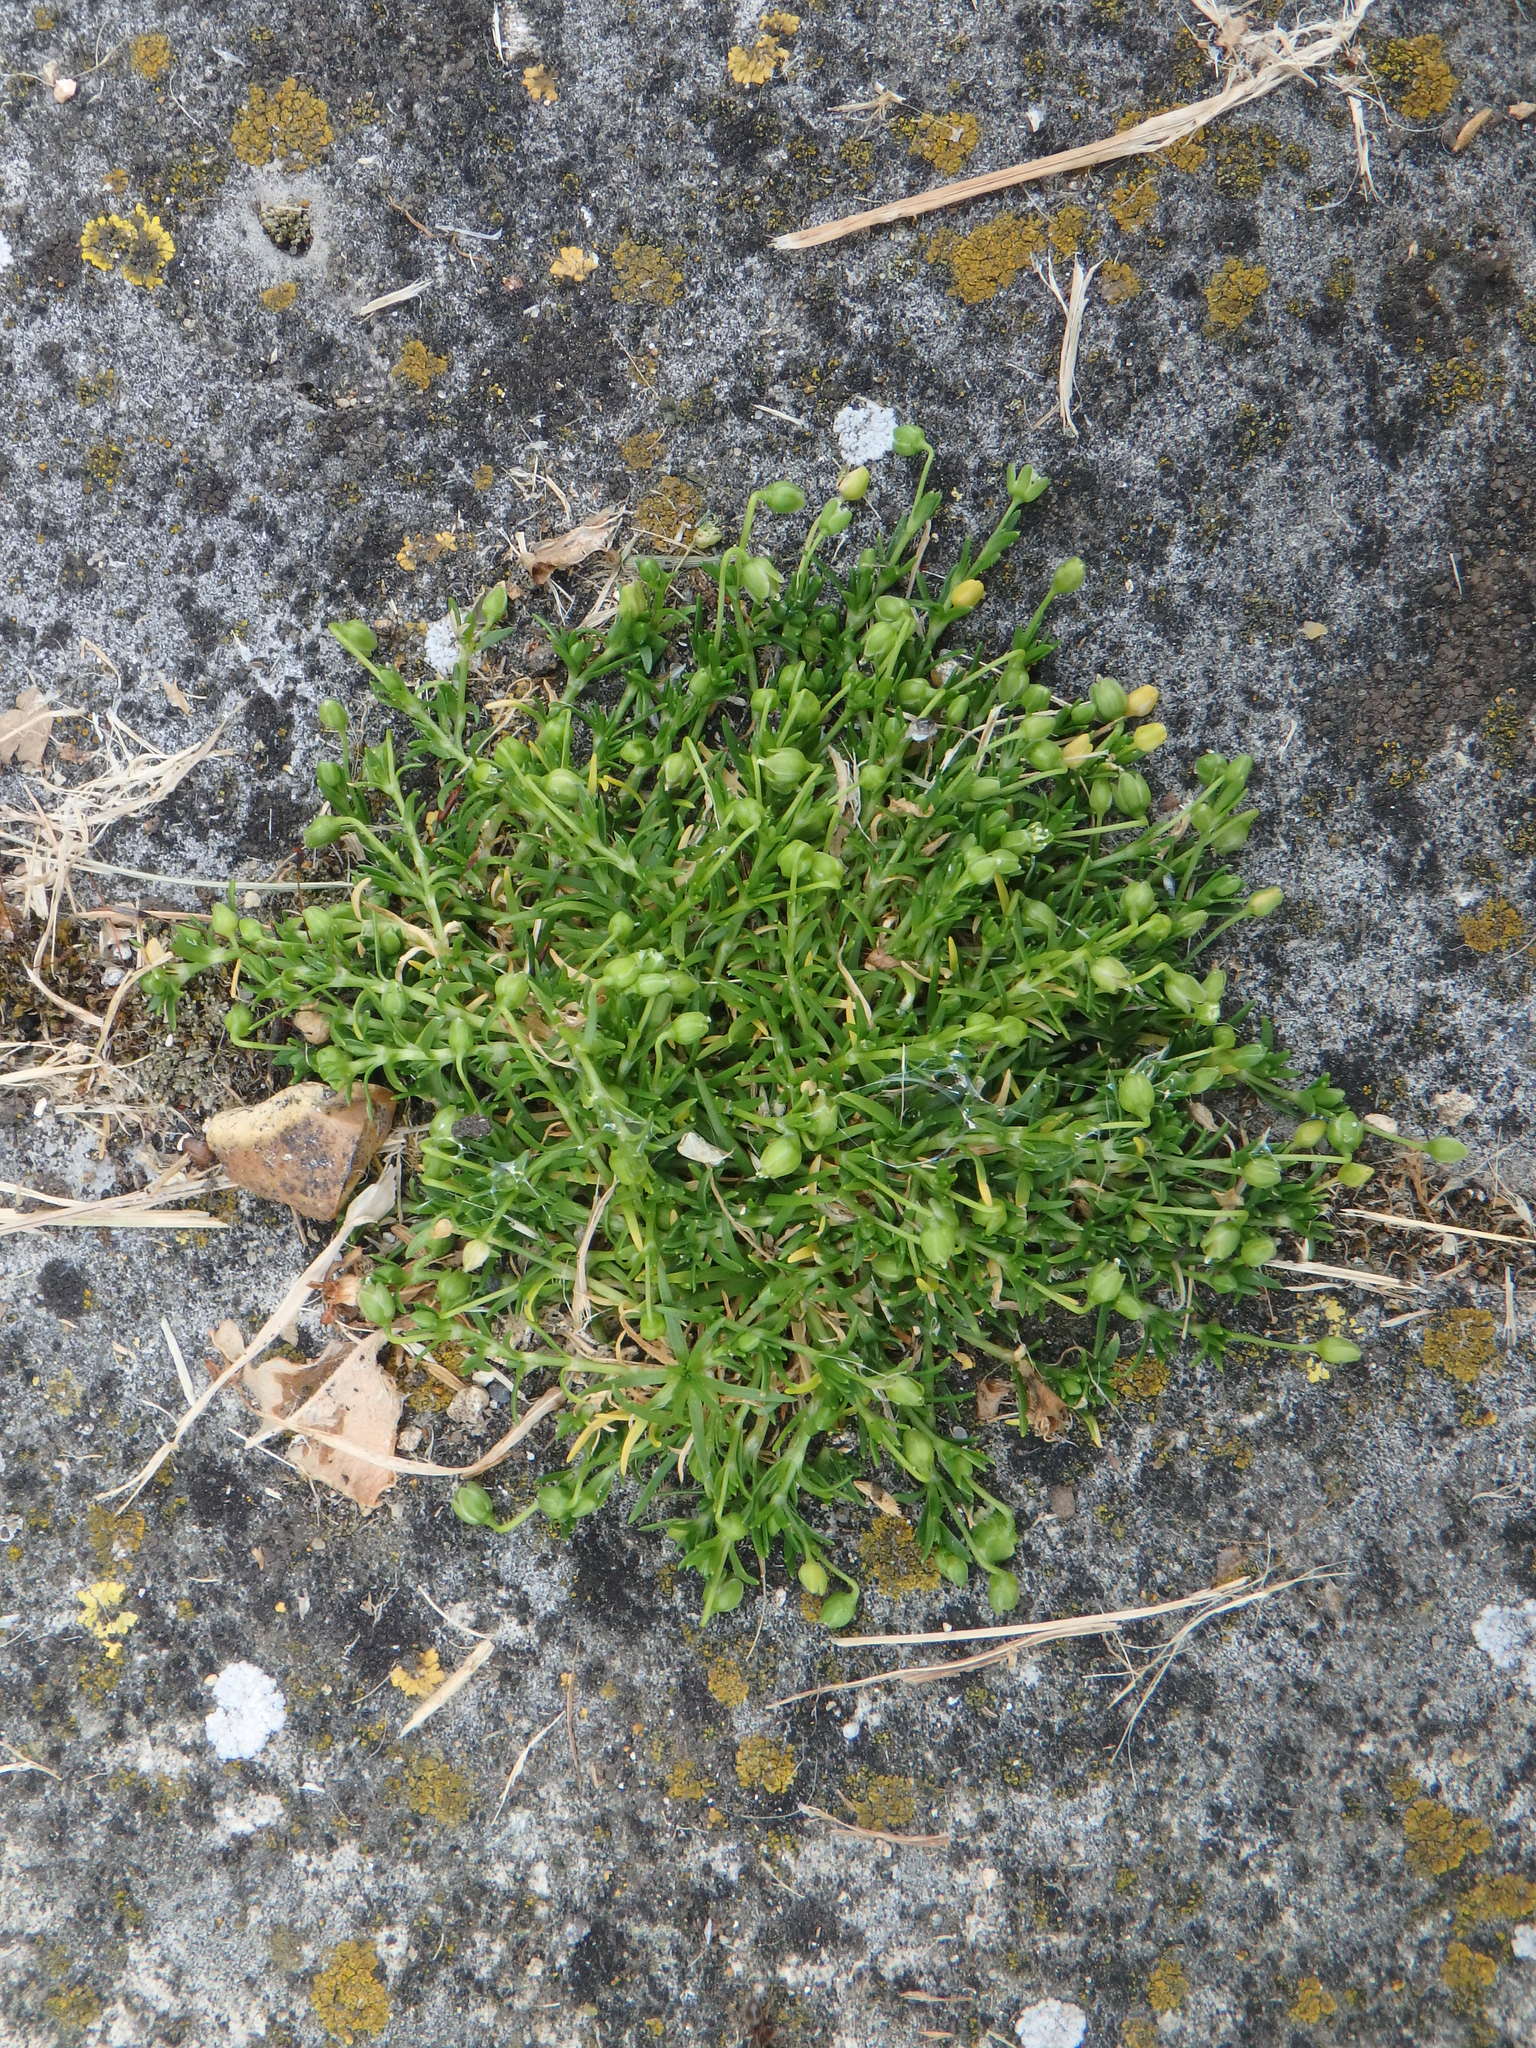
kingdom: Plantae
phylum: Tracheophyta
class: Magnoliopsida
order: Caryophyllales
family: Caryophyllaceae
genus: Sagina
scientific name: Sagina procumbens
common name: Procumbent pearlwort
